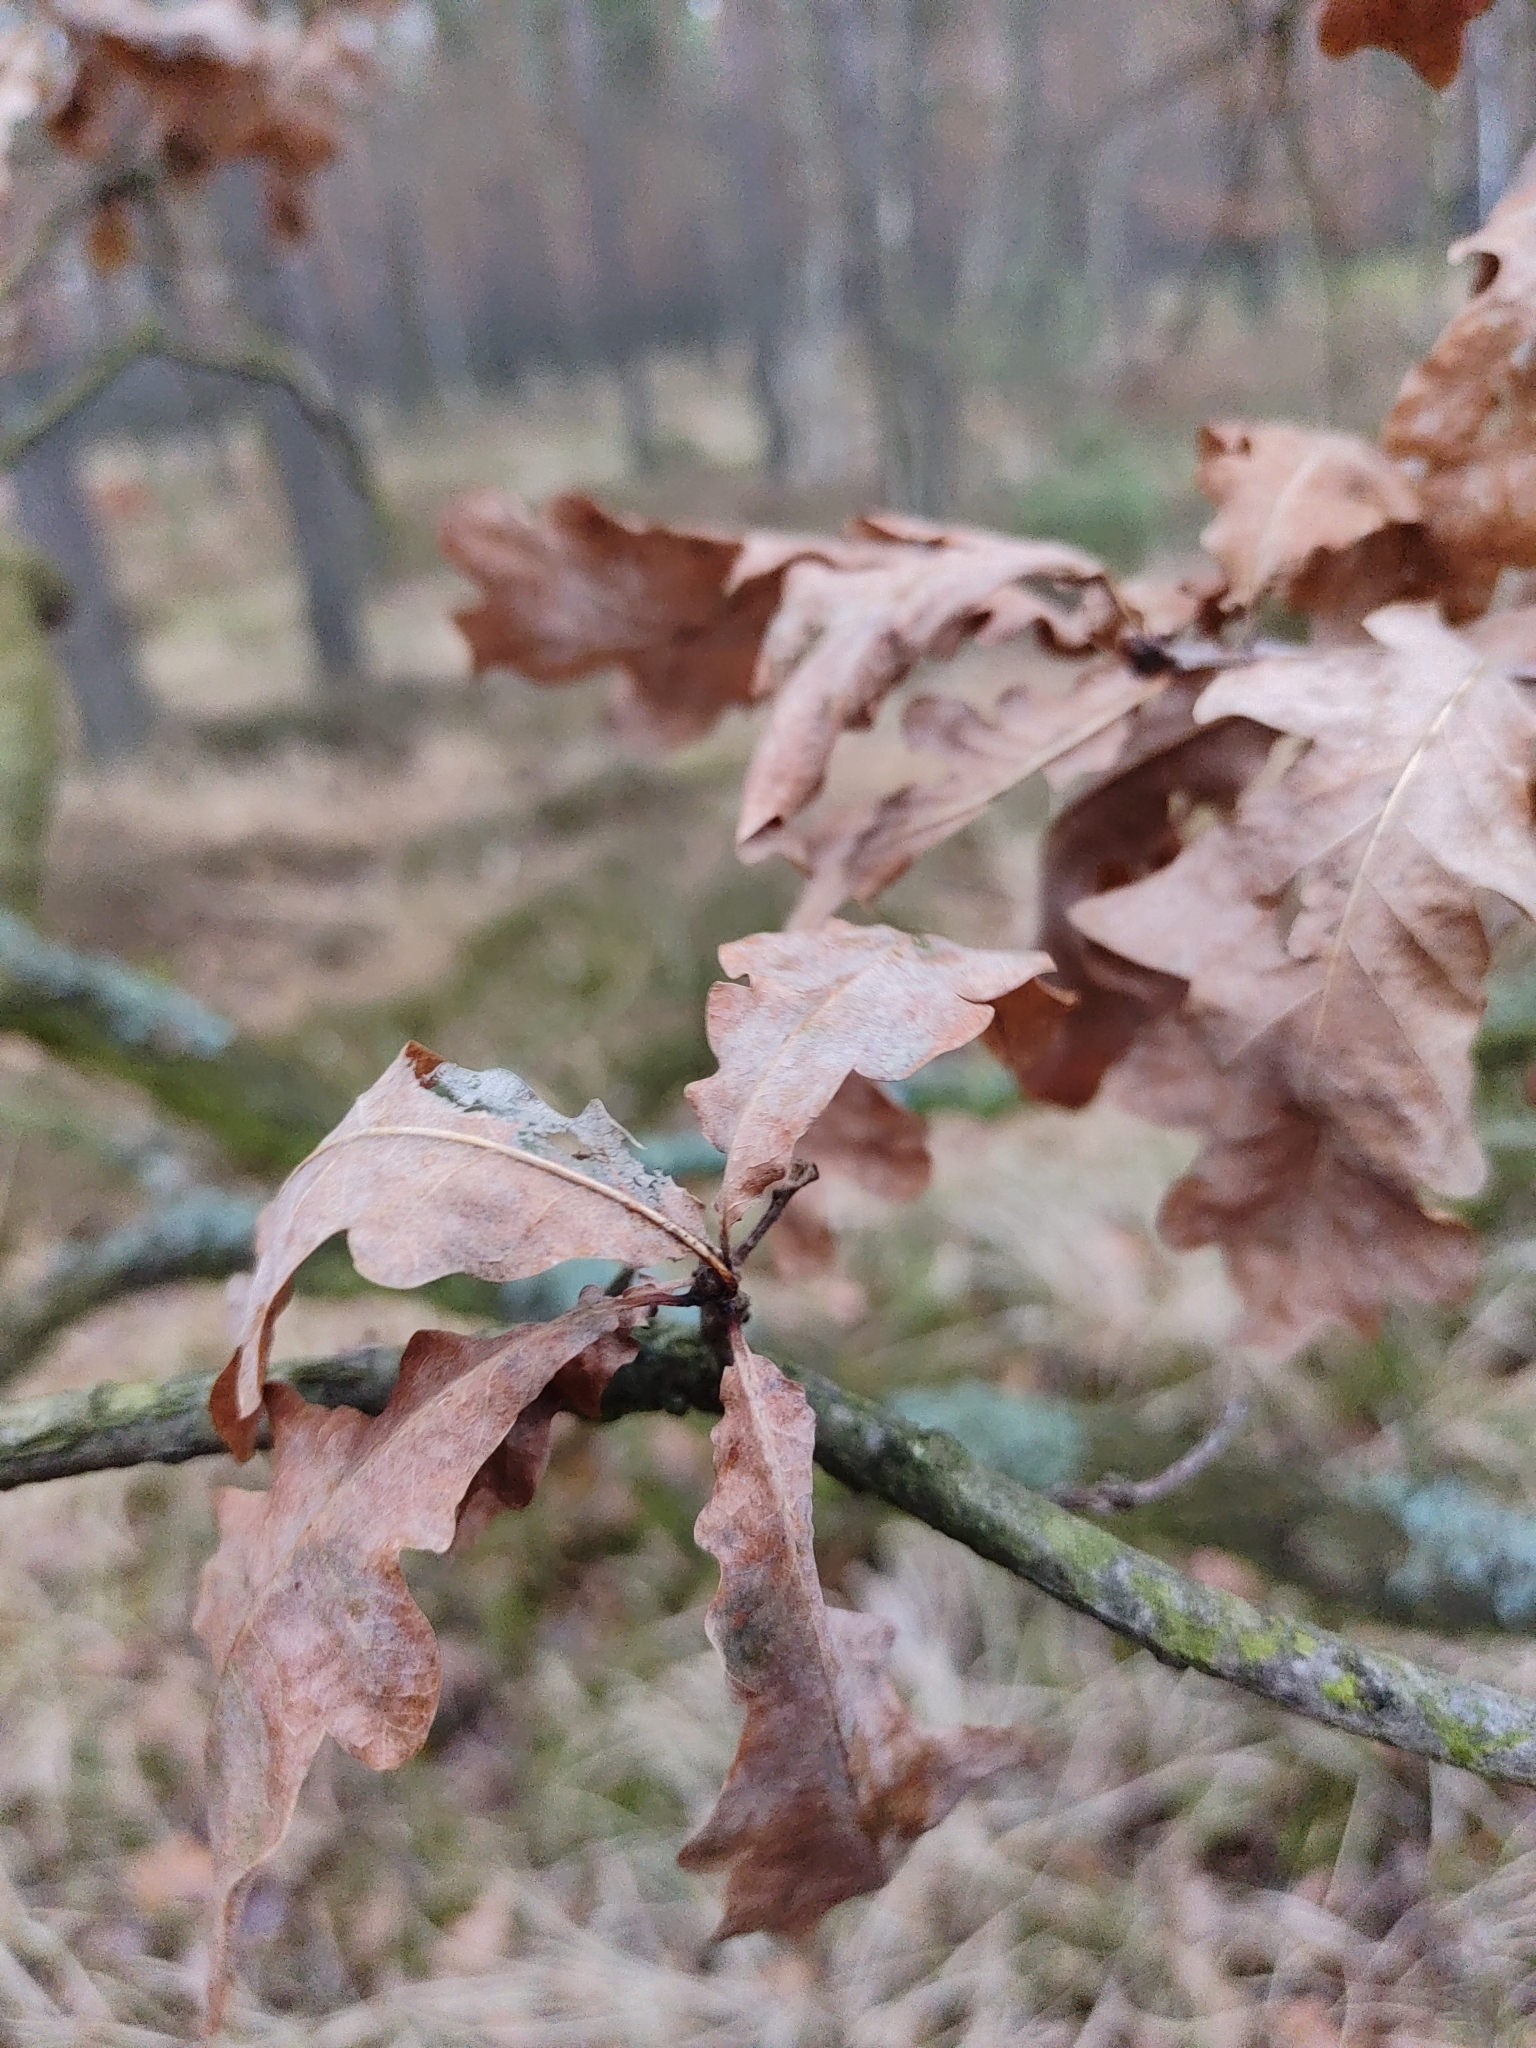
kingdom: Plantae
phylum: Tracheophyta
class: Magnoliopsida
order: Fagales
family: Fagaceae
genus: Quercus
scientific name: Quercus robur
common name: Pedunculate oak
